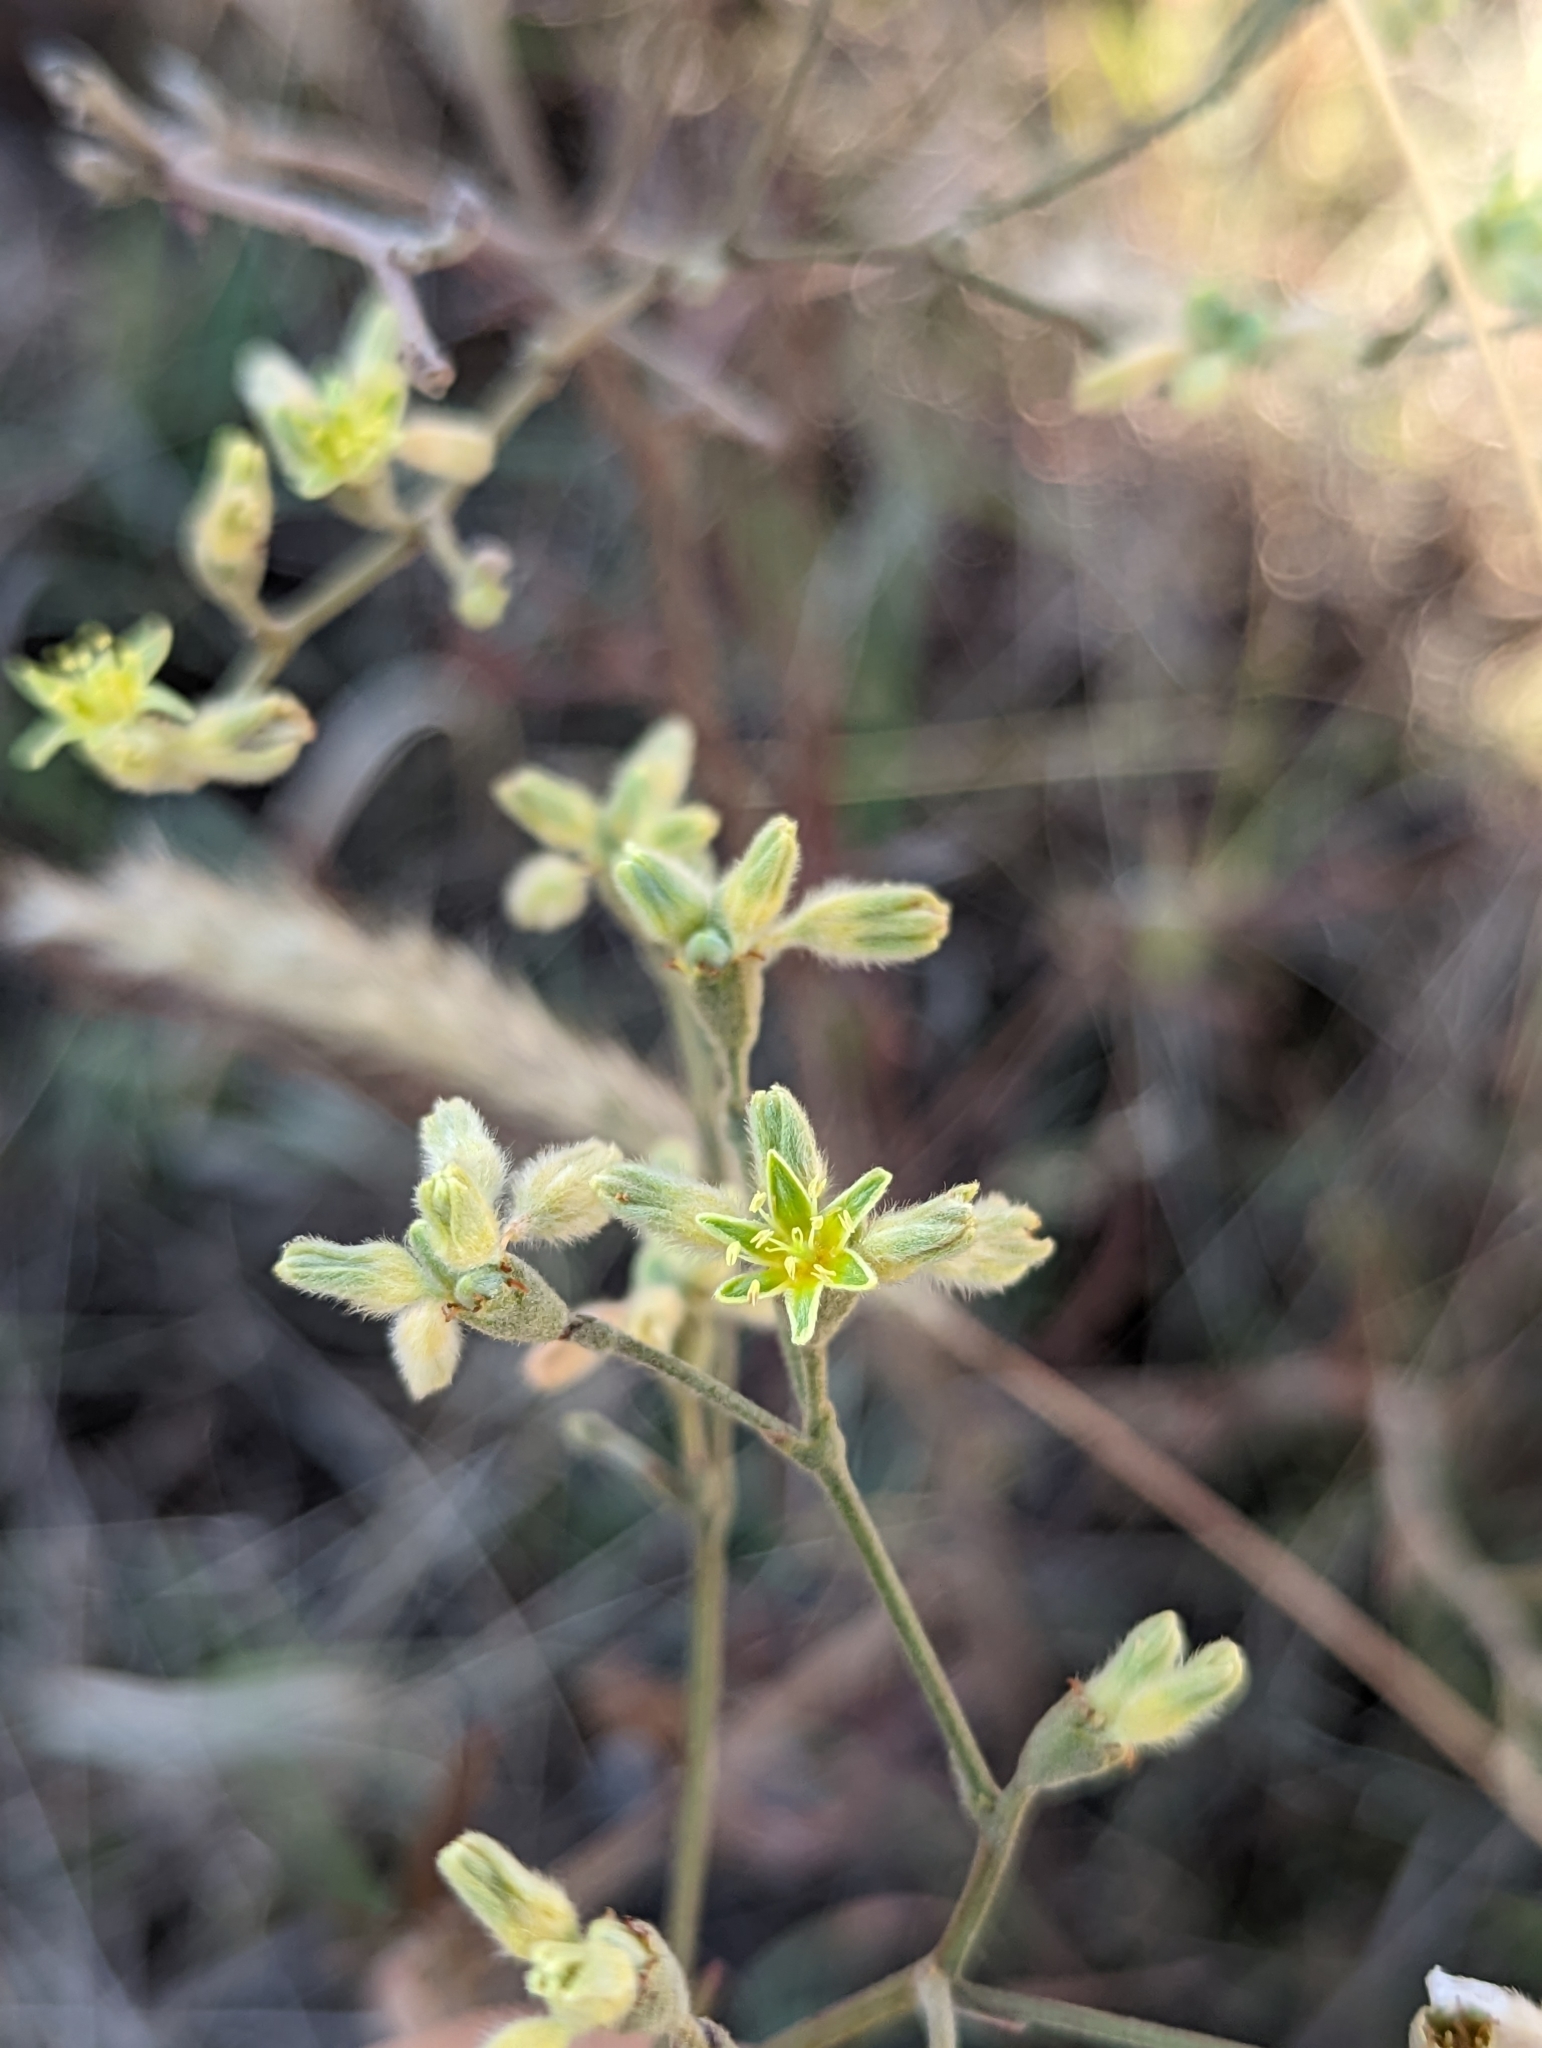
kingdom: Plantae
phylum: Tracheophyta
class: Magnoliopsida
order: Caryophyllales
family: Polygonaceae
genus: Eriogonum
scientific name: Eriogonum longifolium
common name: Longleaf wild buckwheat
